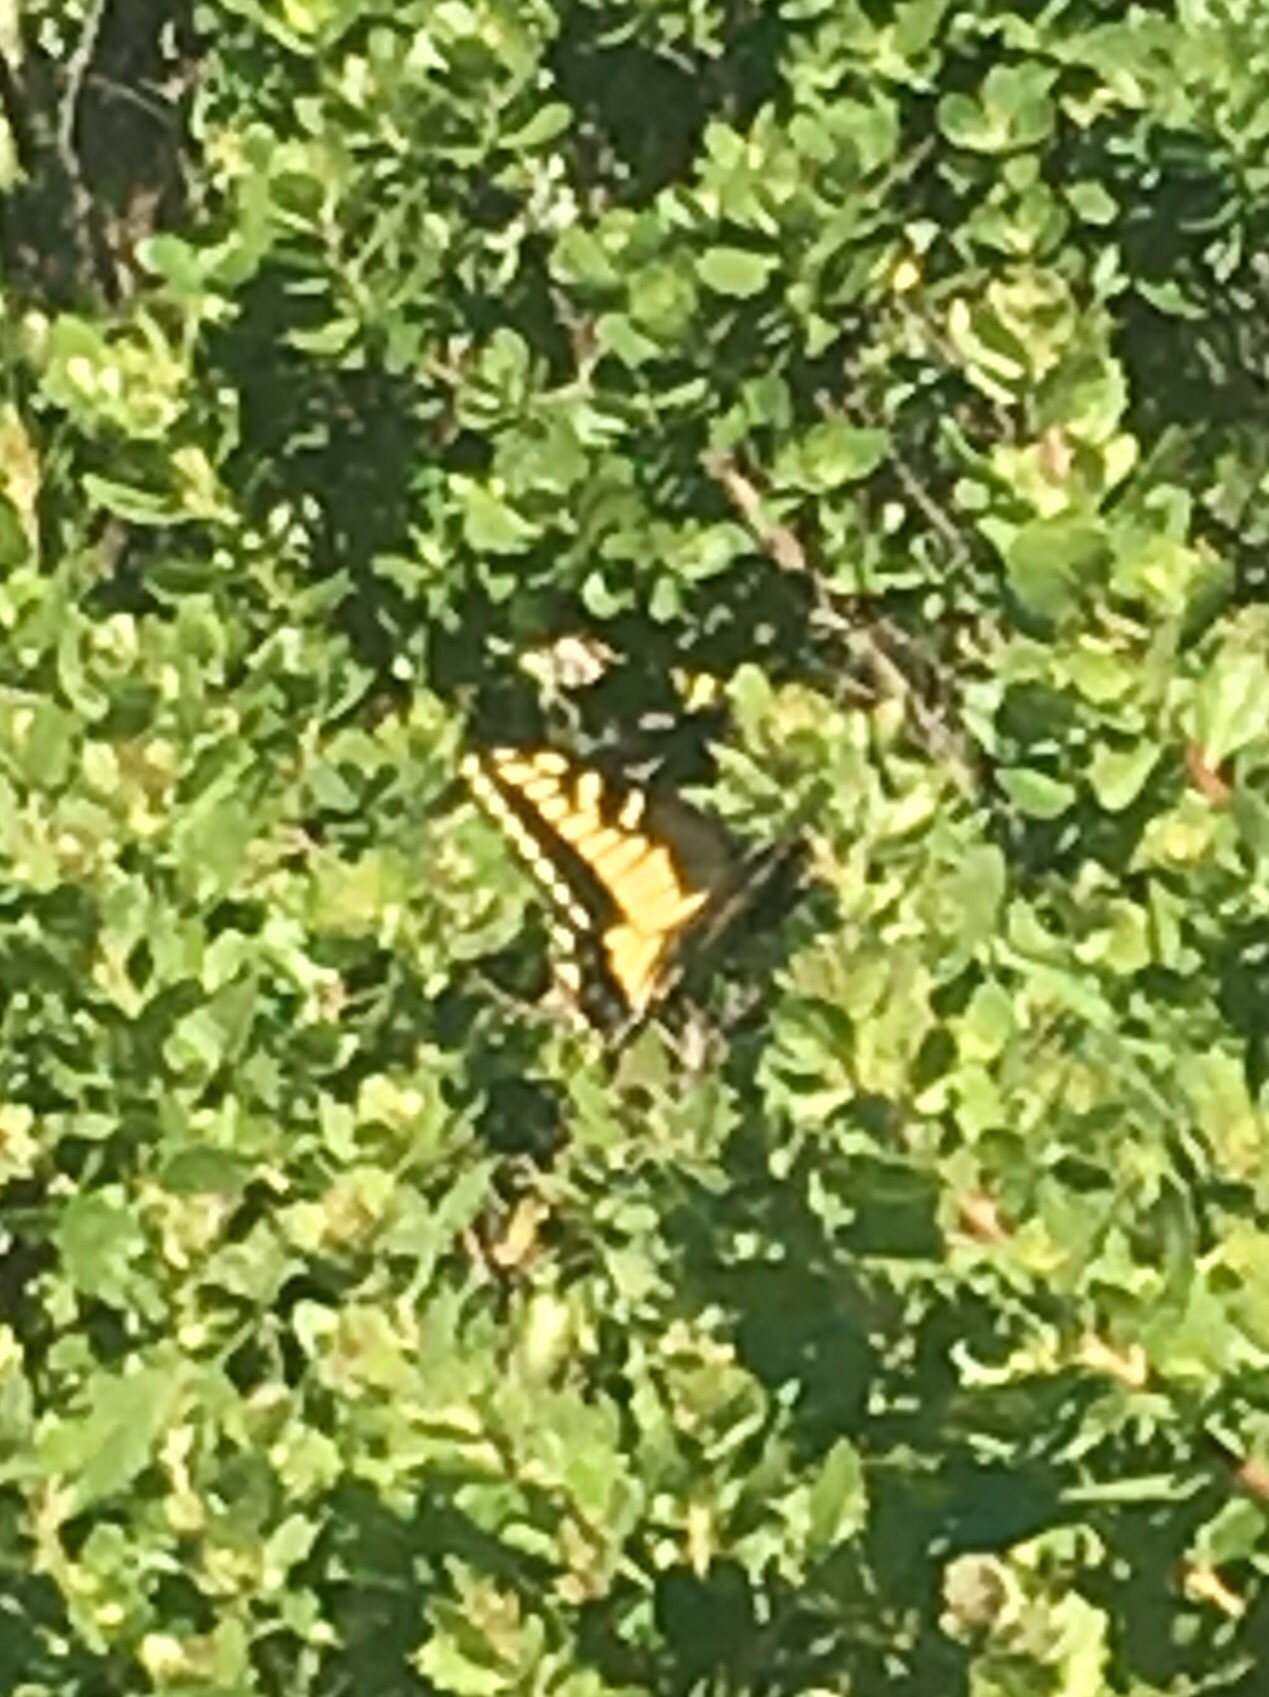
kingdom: Animalia
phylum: Arthropoda
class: Insecta
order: Lepidoptera
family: Papilionidae
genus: Papilio
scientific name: Papilio zelicaon
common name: Anise swallowtail
